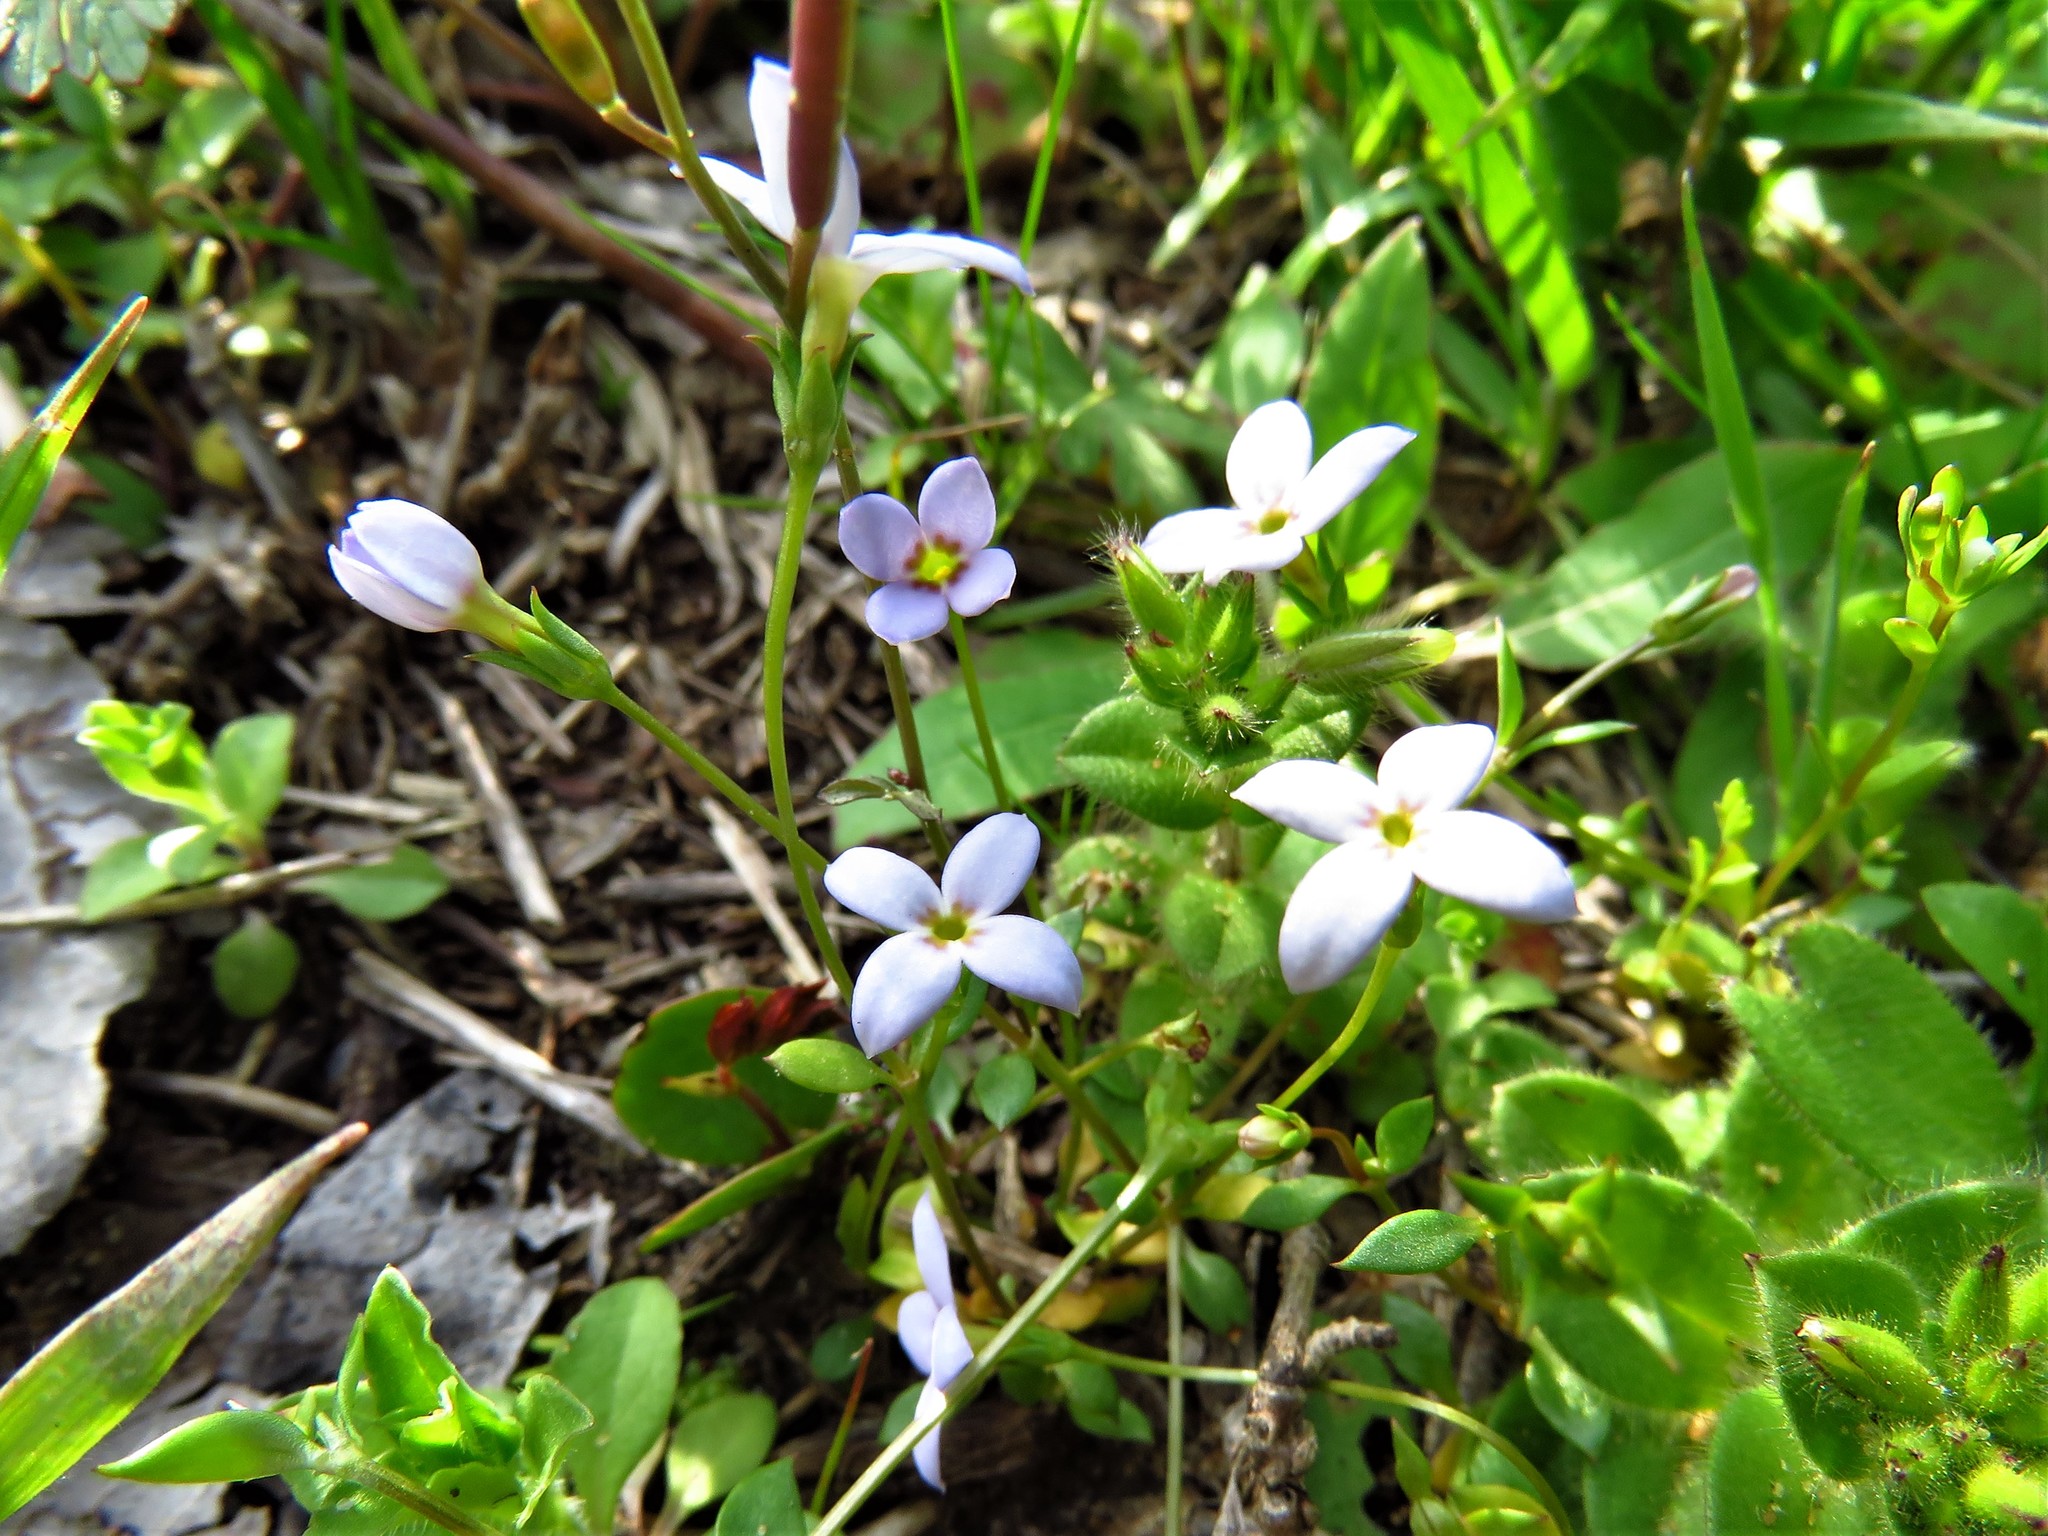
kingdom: Plantae
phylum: Tracheophyta
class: Magnoliopsida
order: Gentianales
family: Rubiaceae
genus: Houstonia
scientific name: Houstonia pusilla
